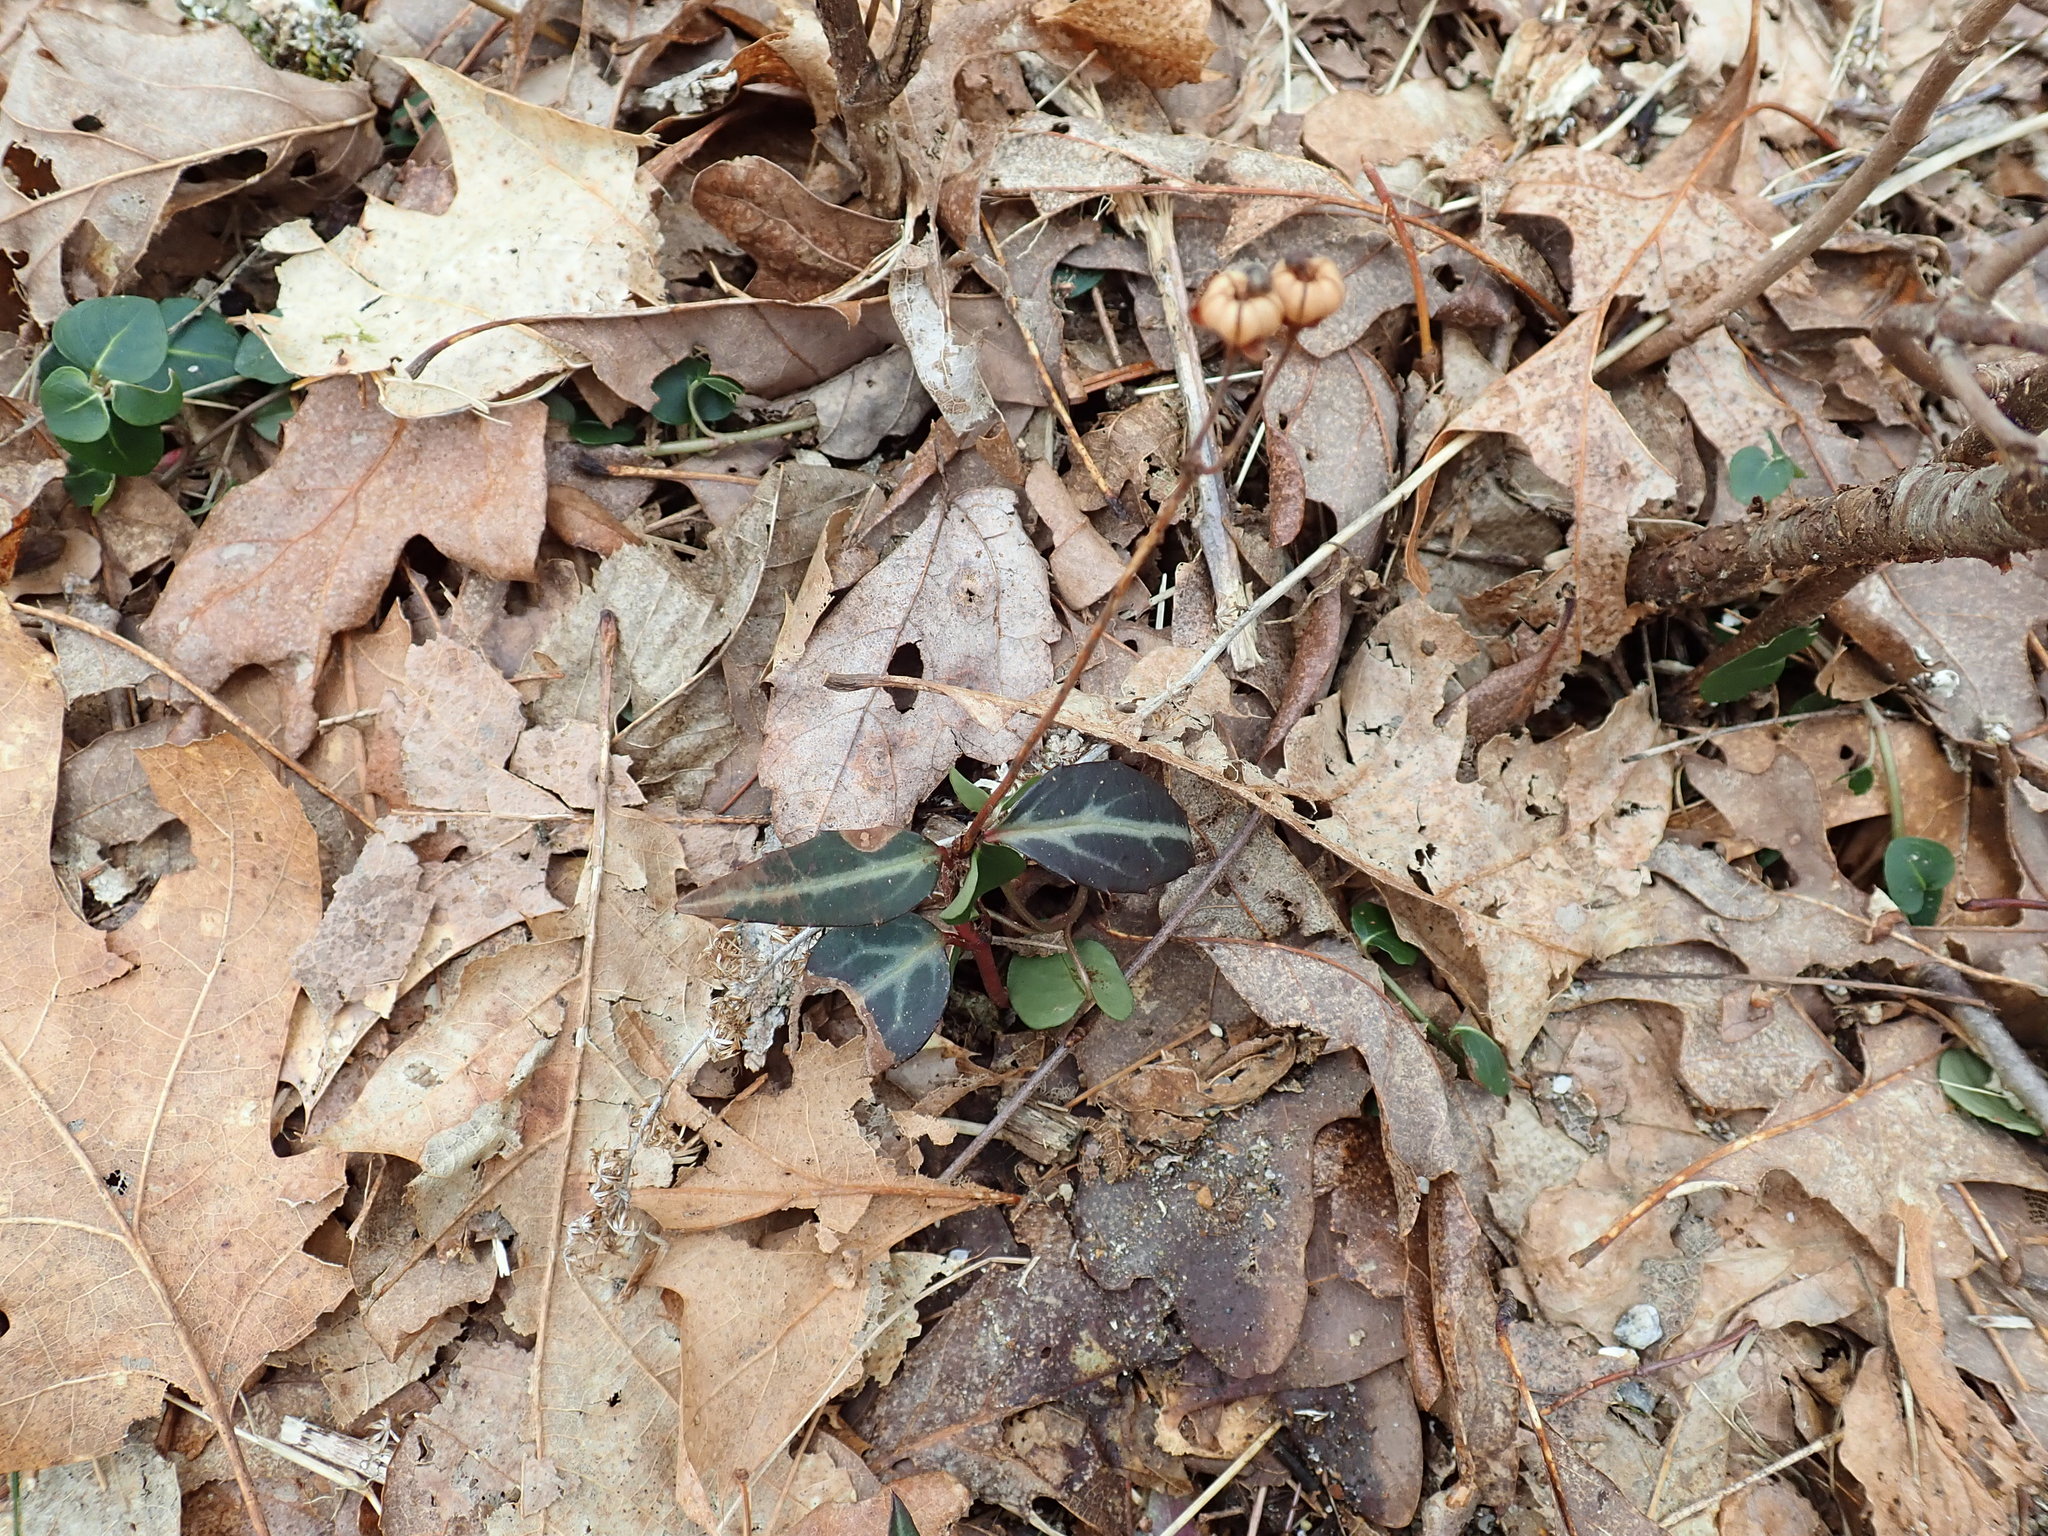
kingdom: Plantae
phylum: Tracheophyta
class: Magnoliopsida
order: Ericales
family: Ericaceae
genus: Chimaphila
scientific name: Chimaphila maculata
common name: Spotted pipsissewa
